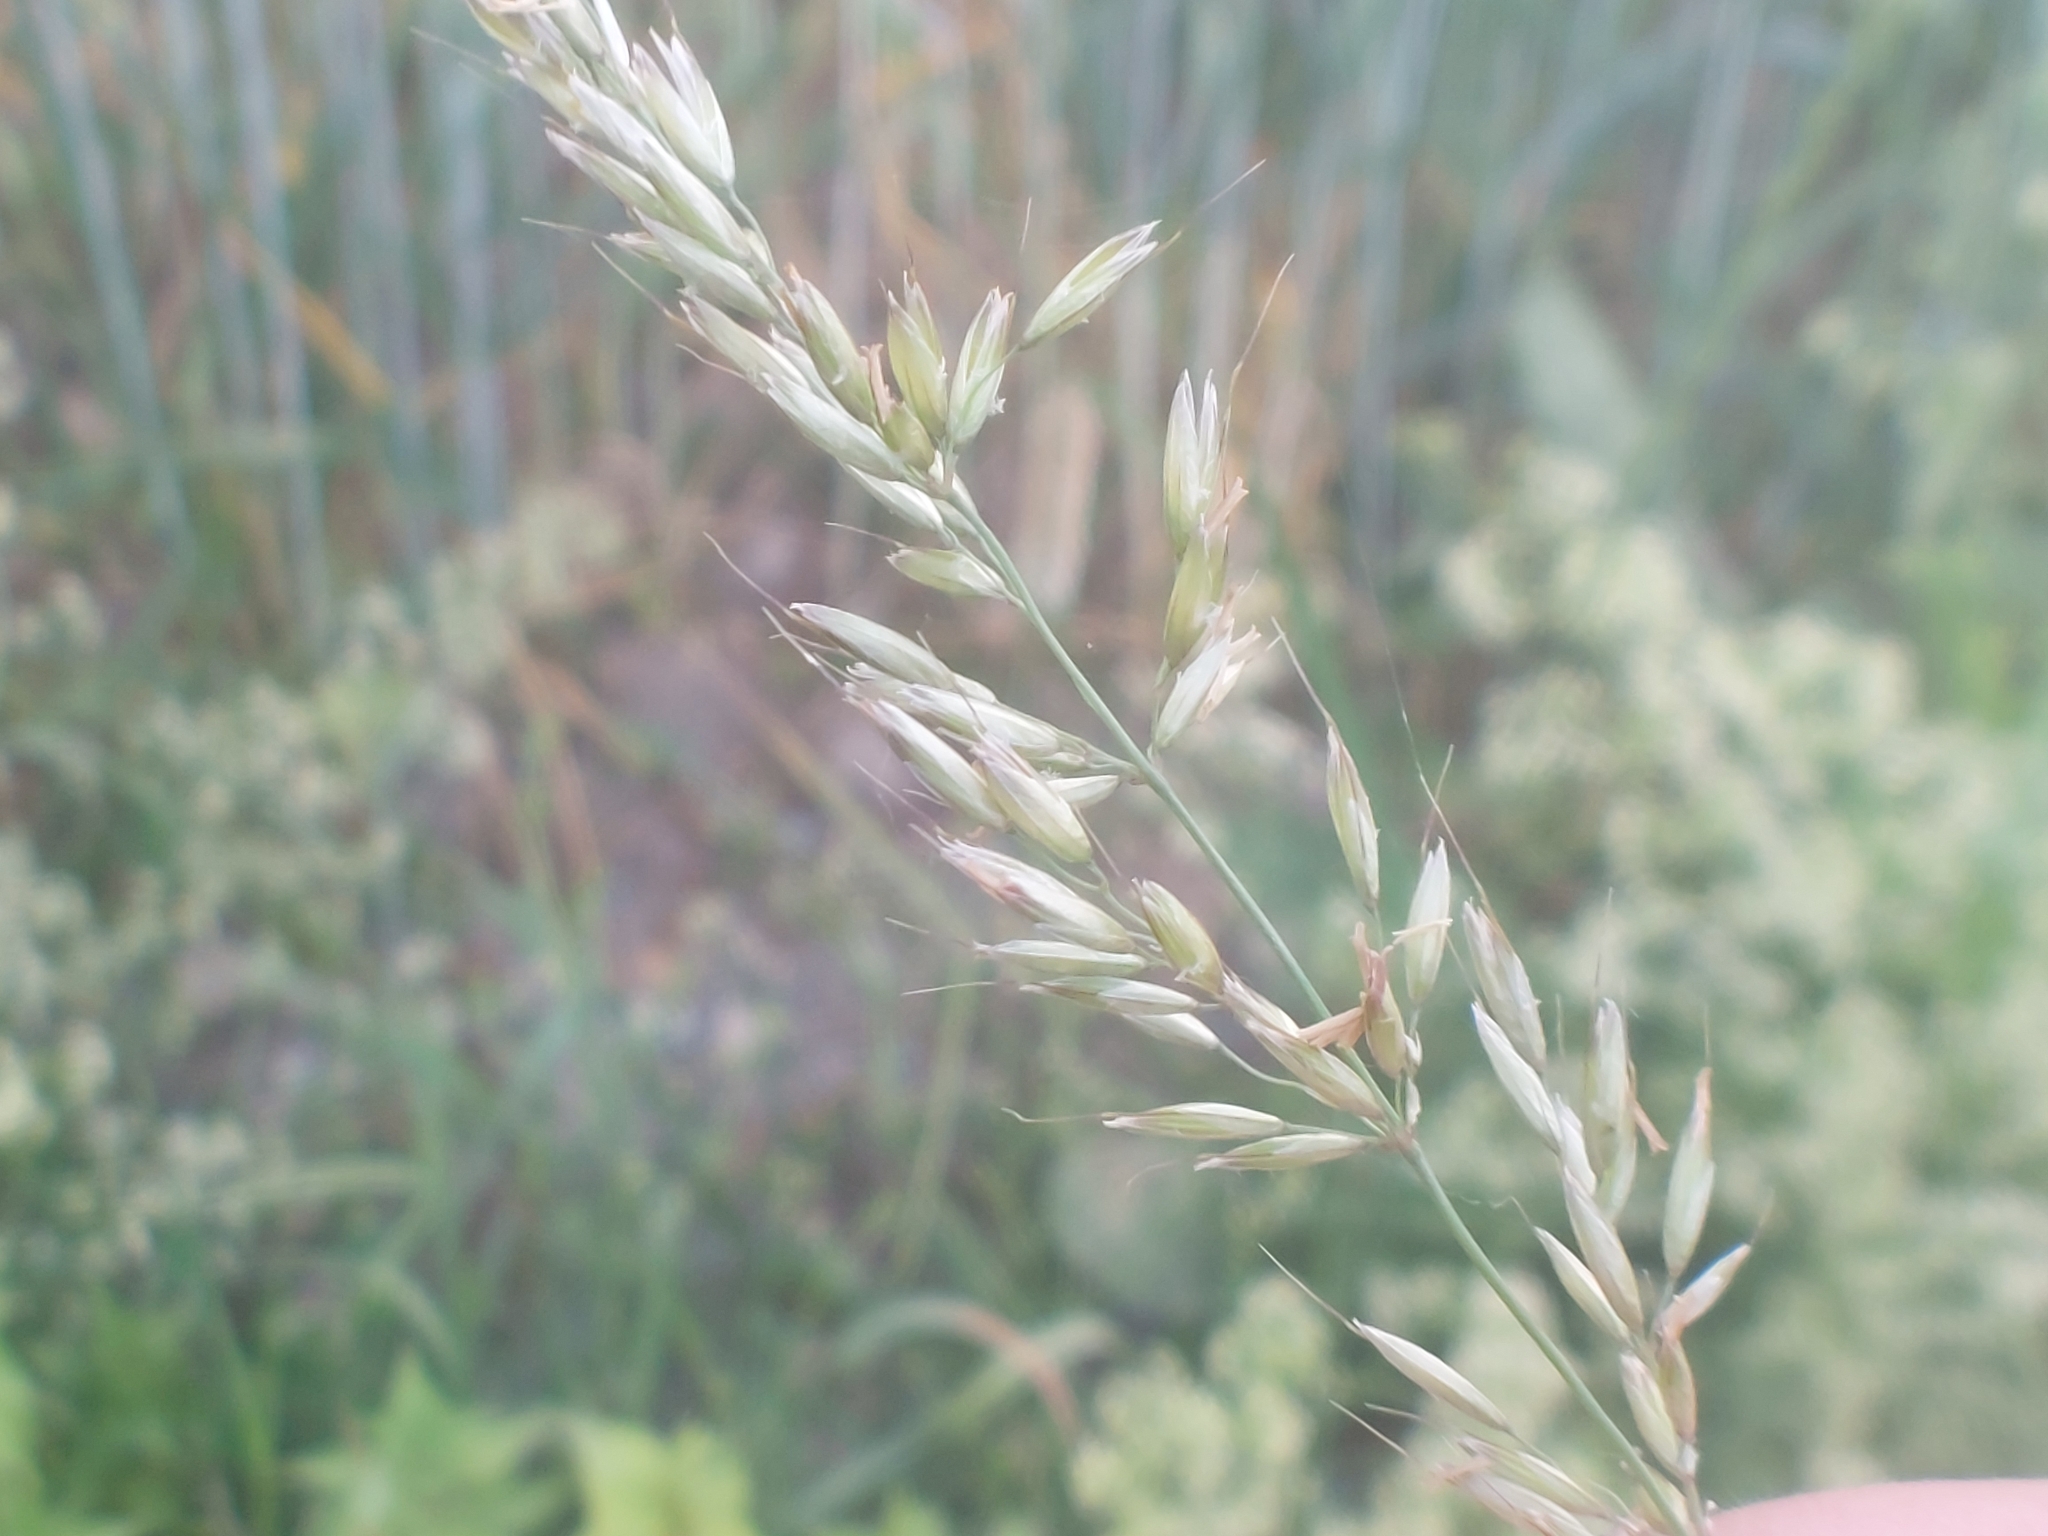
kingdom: Plantae
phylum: Tracheophyta
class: Liliopsida
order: Poales
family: Poaceae
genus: Arrhenatherum
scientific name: Arrhenatherum elatius
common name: Tall oatgrass
